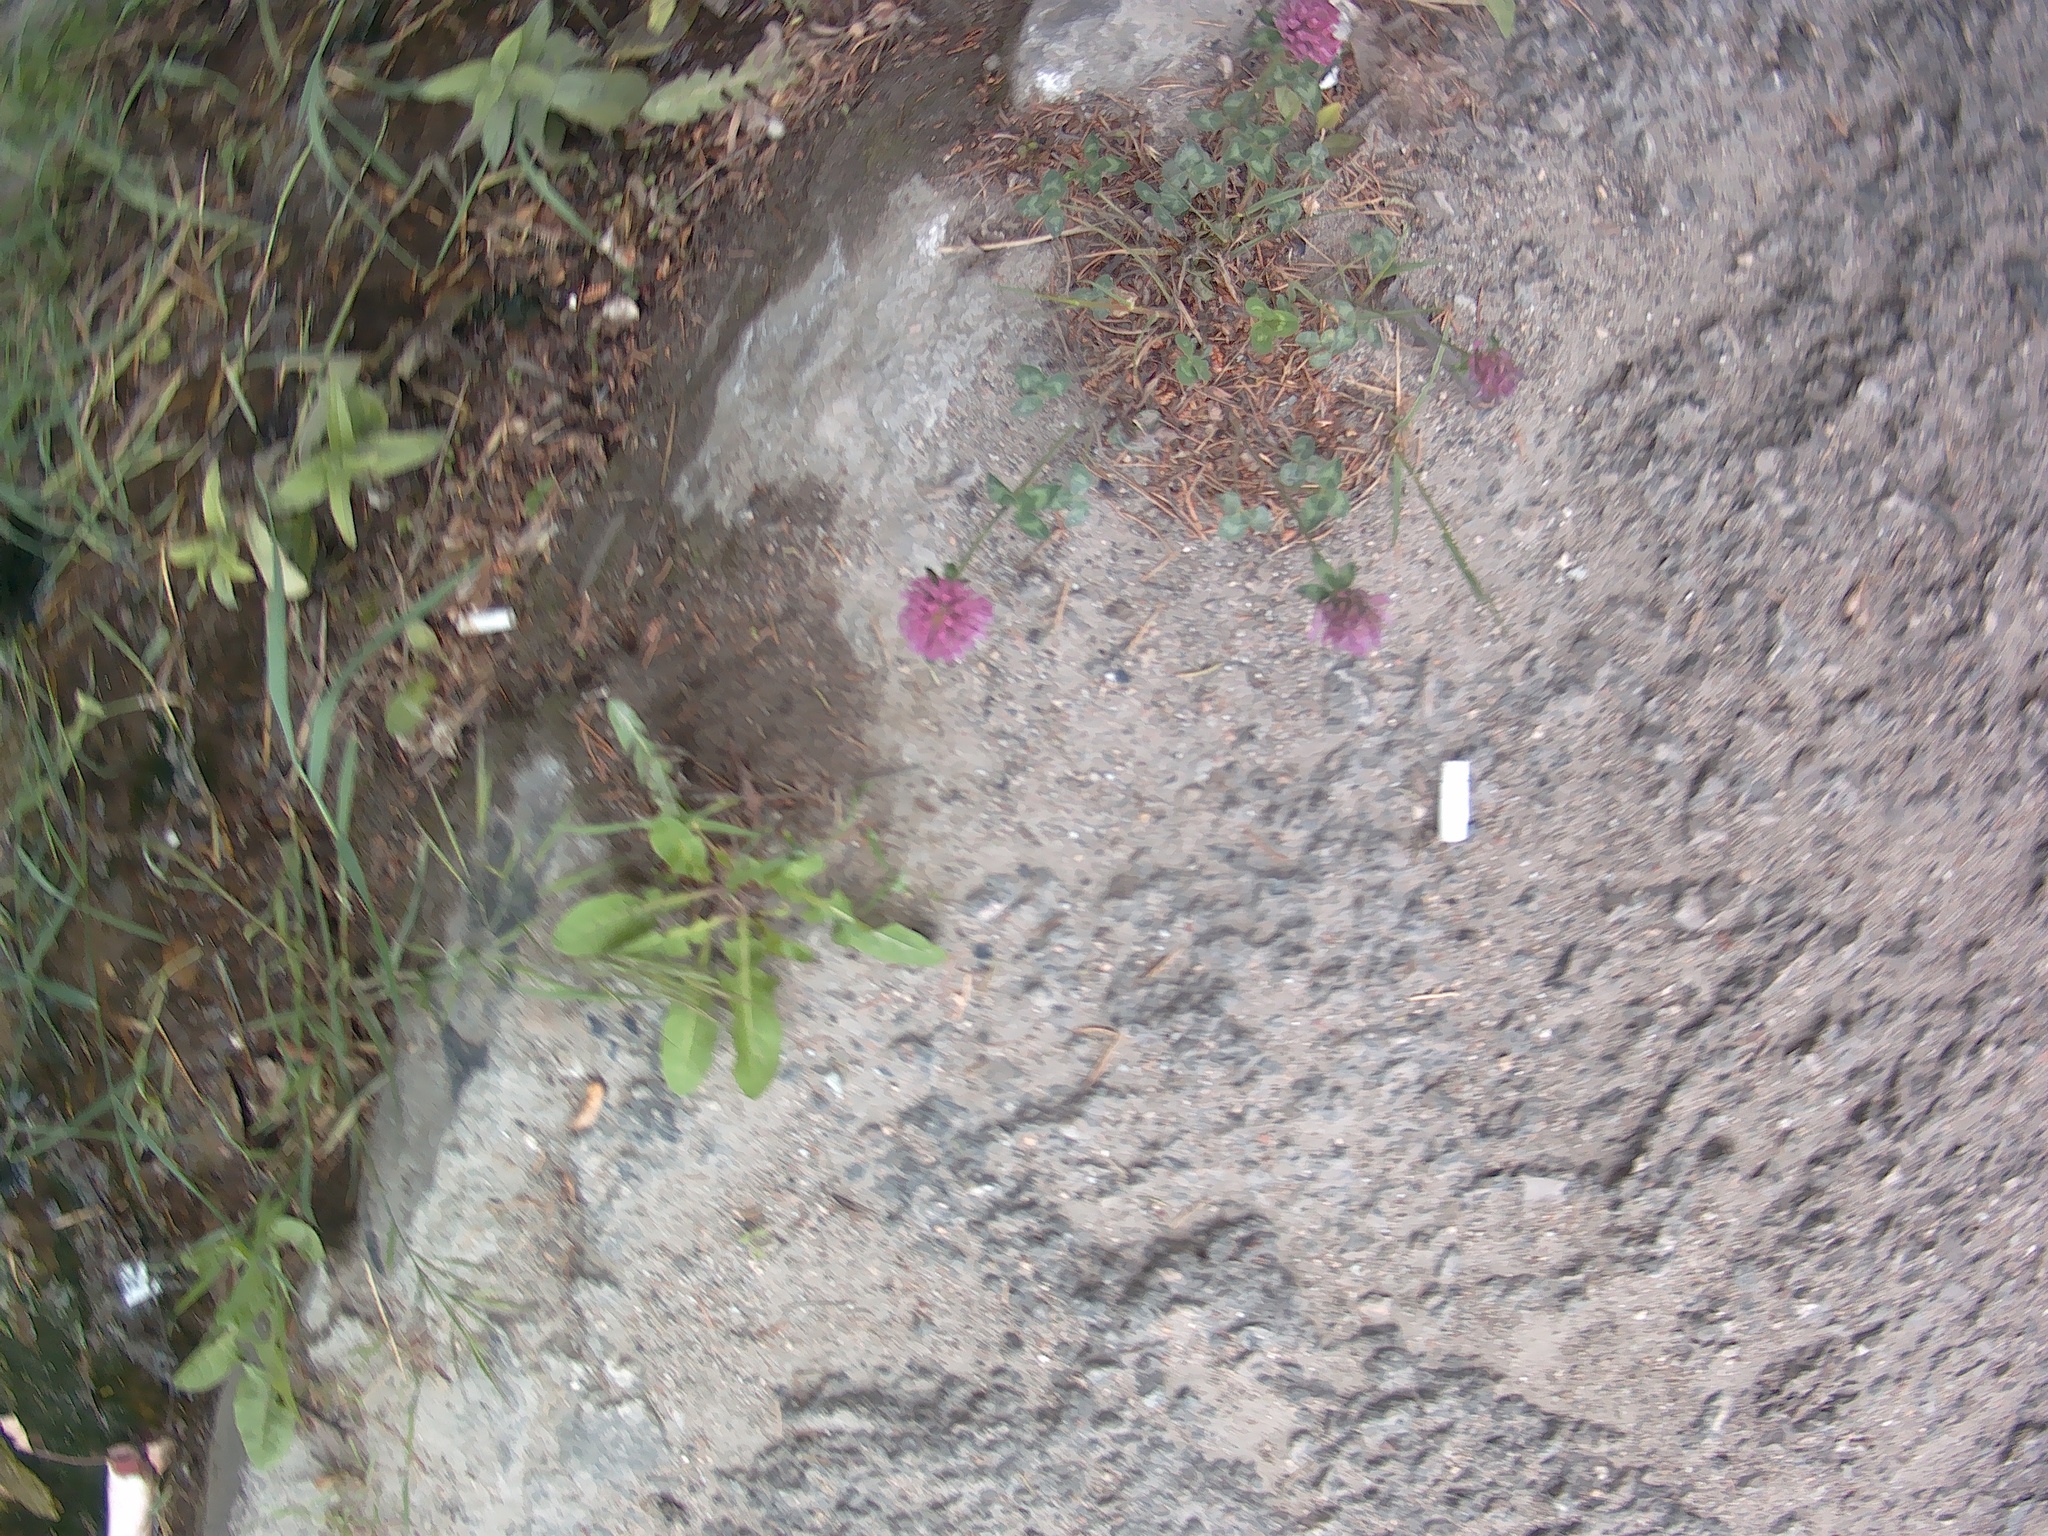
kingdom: Plantae
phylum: Tracheophyta
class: Magnoliopsida
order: Fabales
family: Fabaceae
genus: Trifolium
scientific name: Trifolium pratense
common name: Red clover
